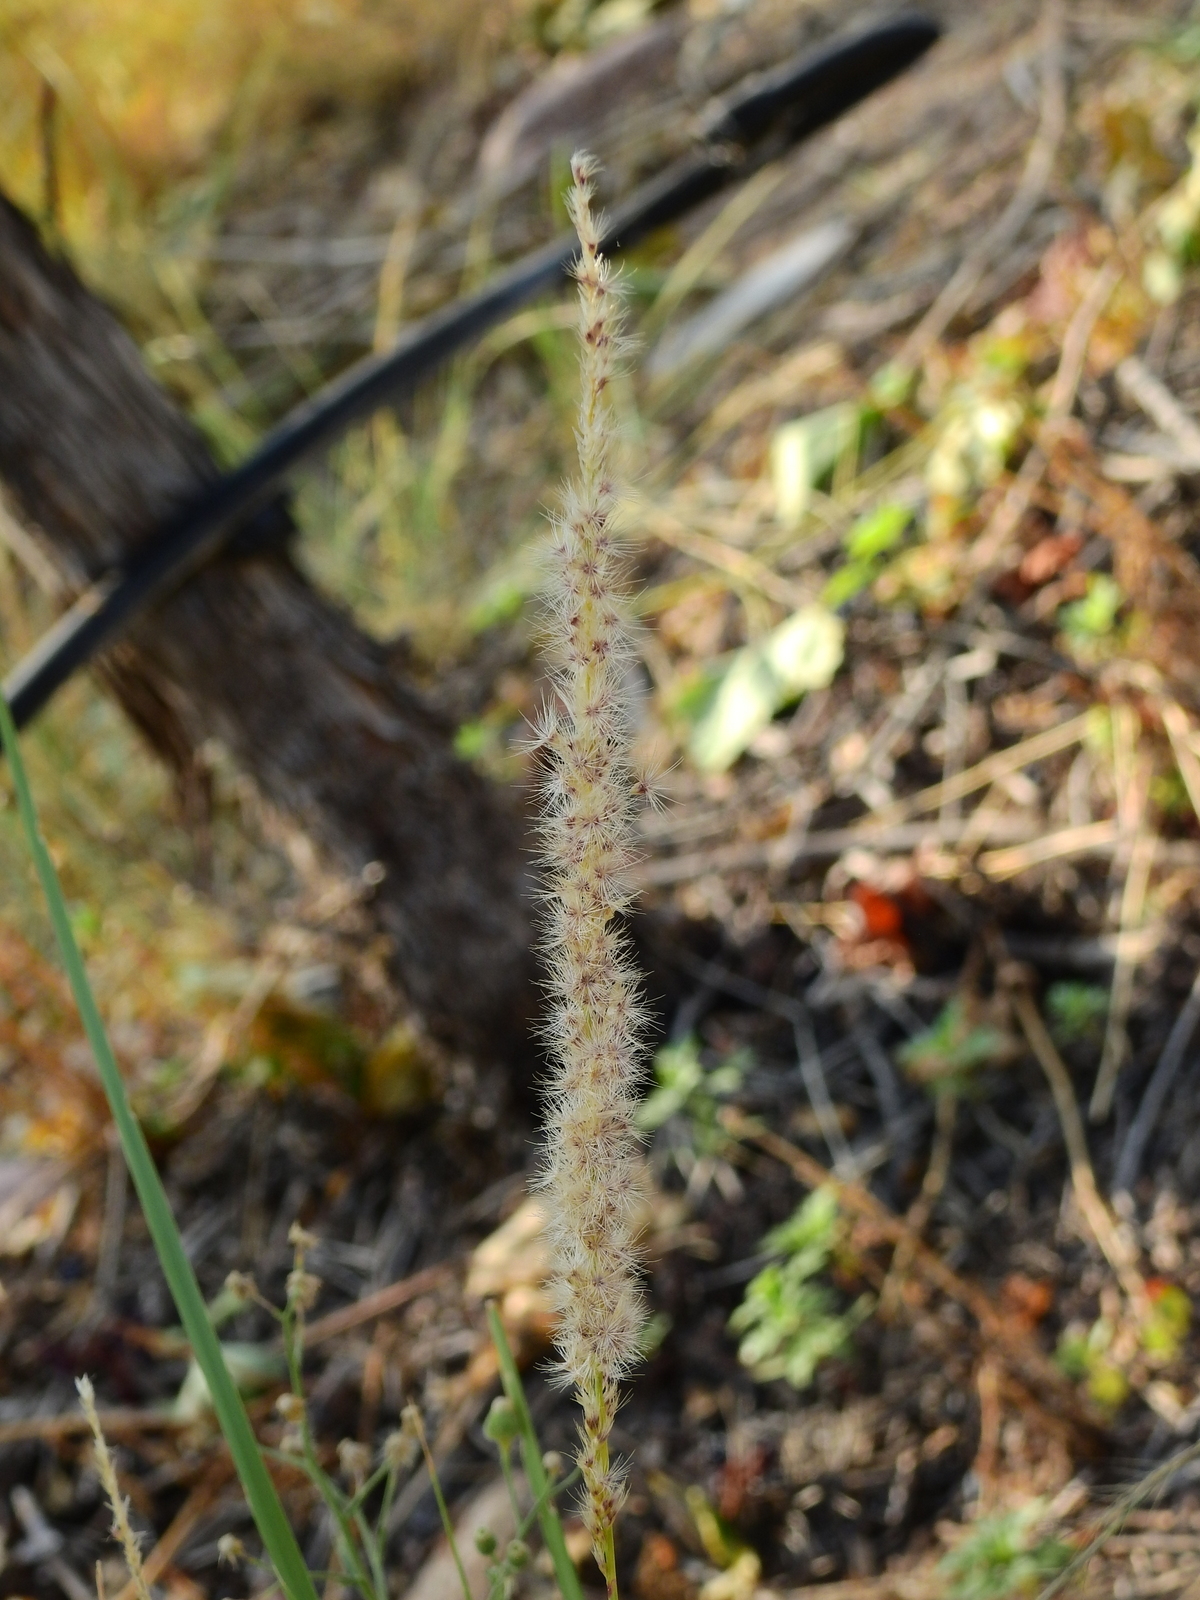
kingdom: Plantae
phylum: Tracheophyta
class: Liliopsida
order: Poales
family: Poaceae
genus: Pappophorum
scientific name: Pappophorum caespitosum
